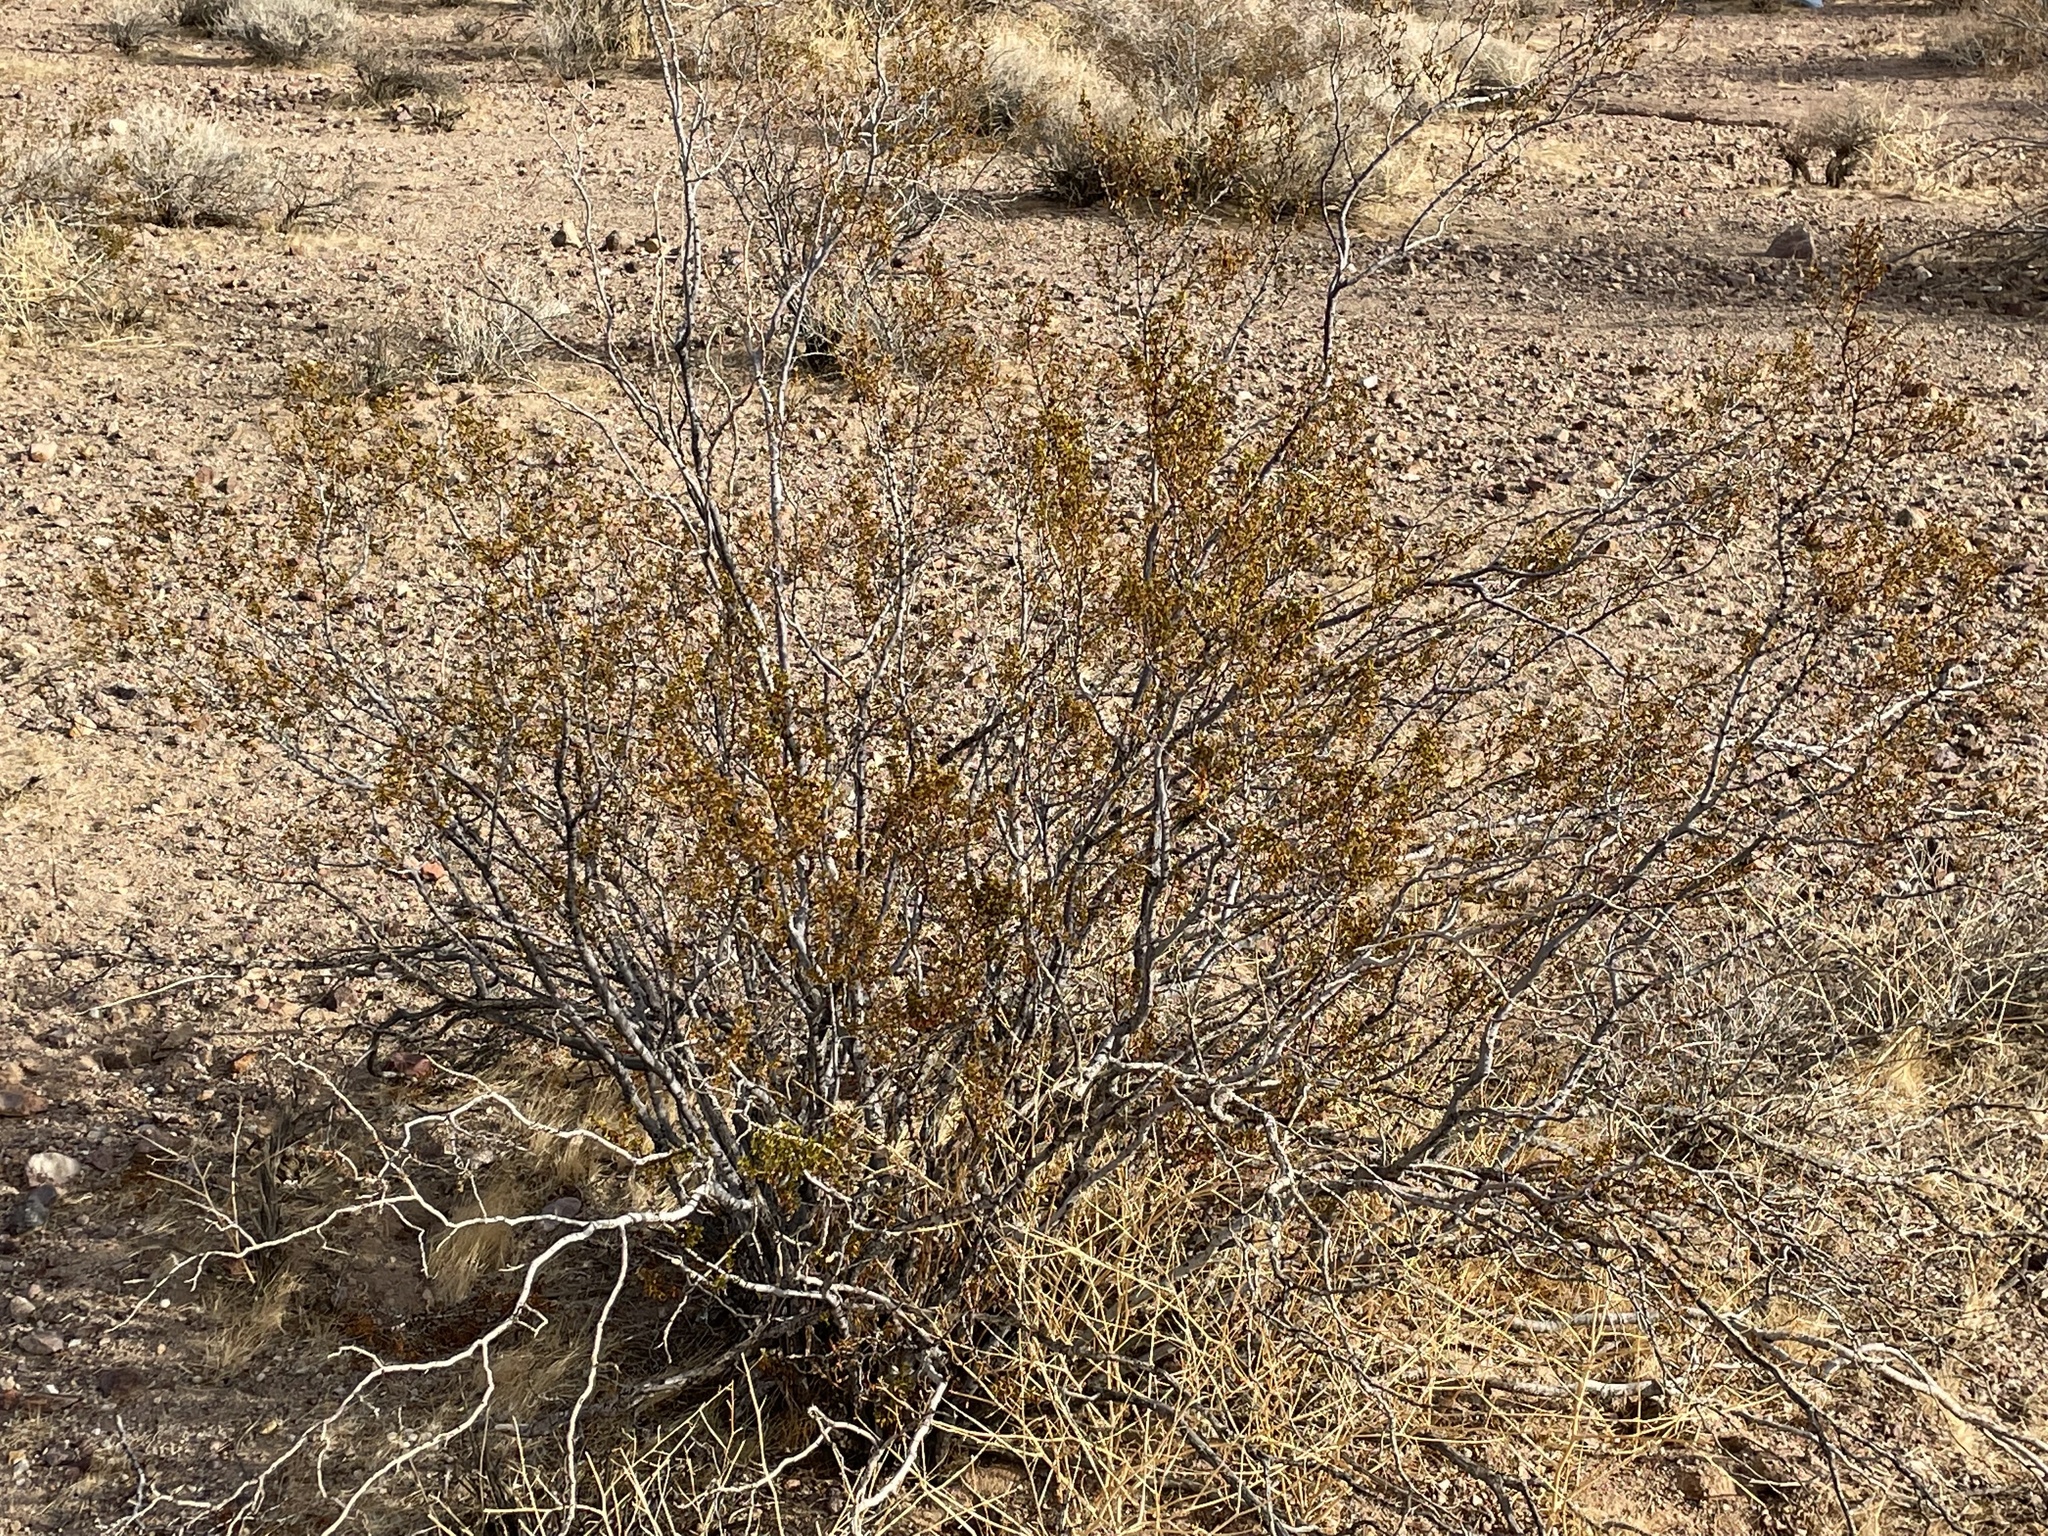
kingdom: Animalia
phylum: Arthropoda
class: Insecta
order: Lepidoptera
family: Psychidae
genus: Thyridopteryx
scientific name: Thyridopteryx meadii
